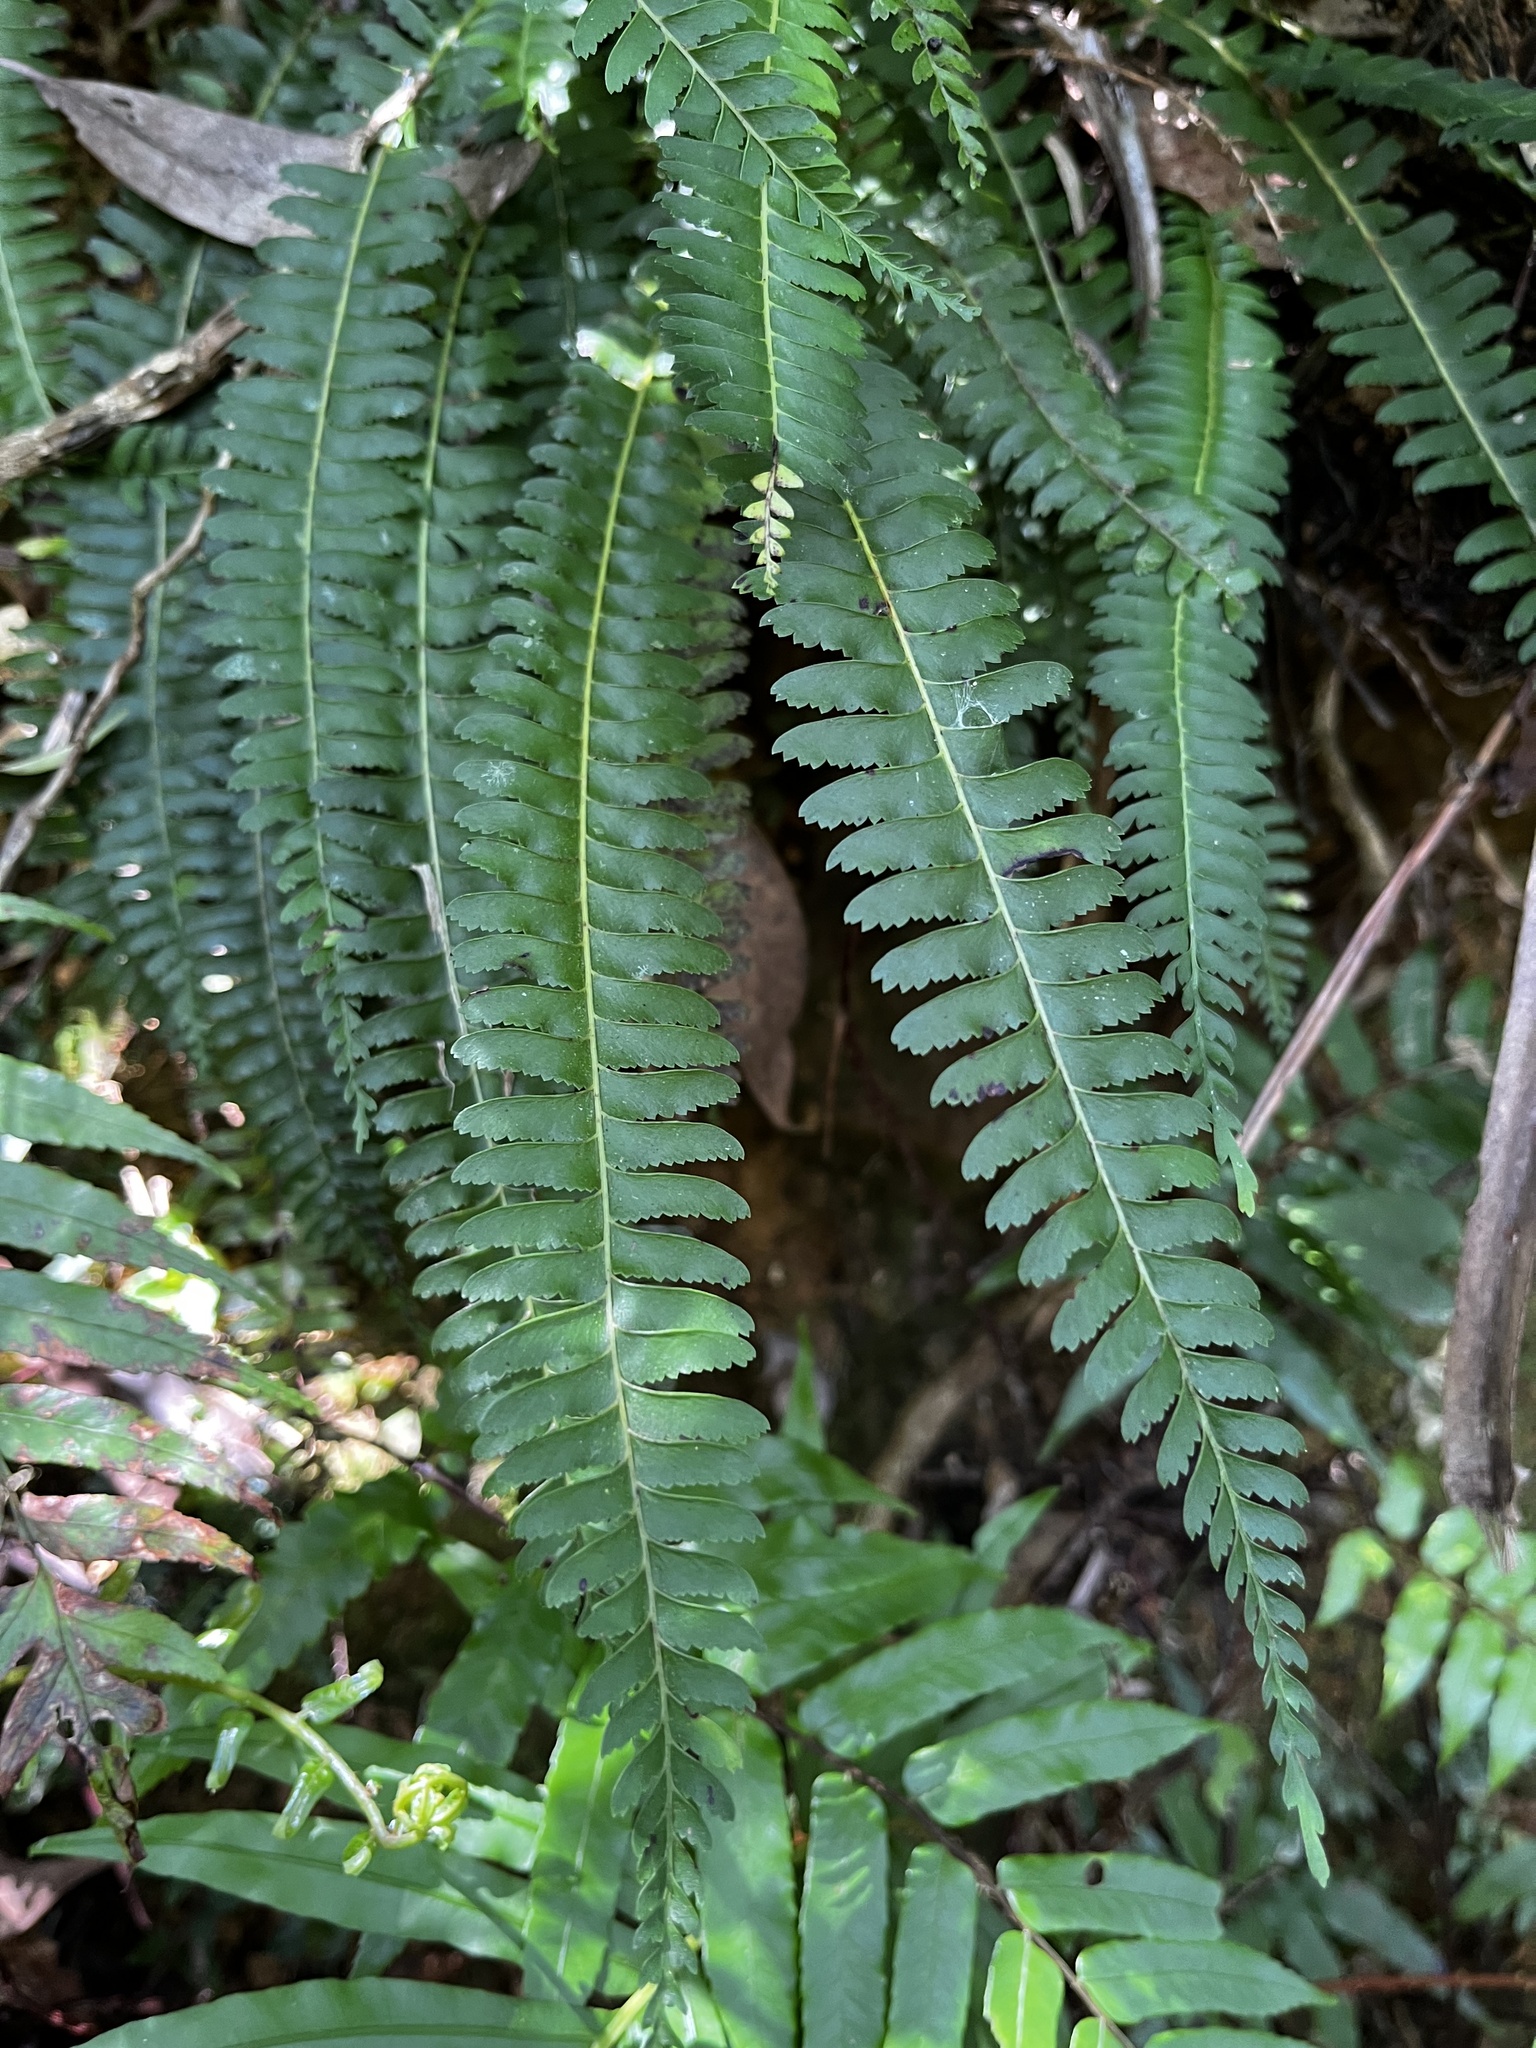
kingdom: Plantae
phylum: Tracheophyta
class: Polypodiopsida
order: Polypodiales
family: Lindsaeaceae
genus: Lindsaea
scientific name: Lindsaea yaeyamensis
